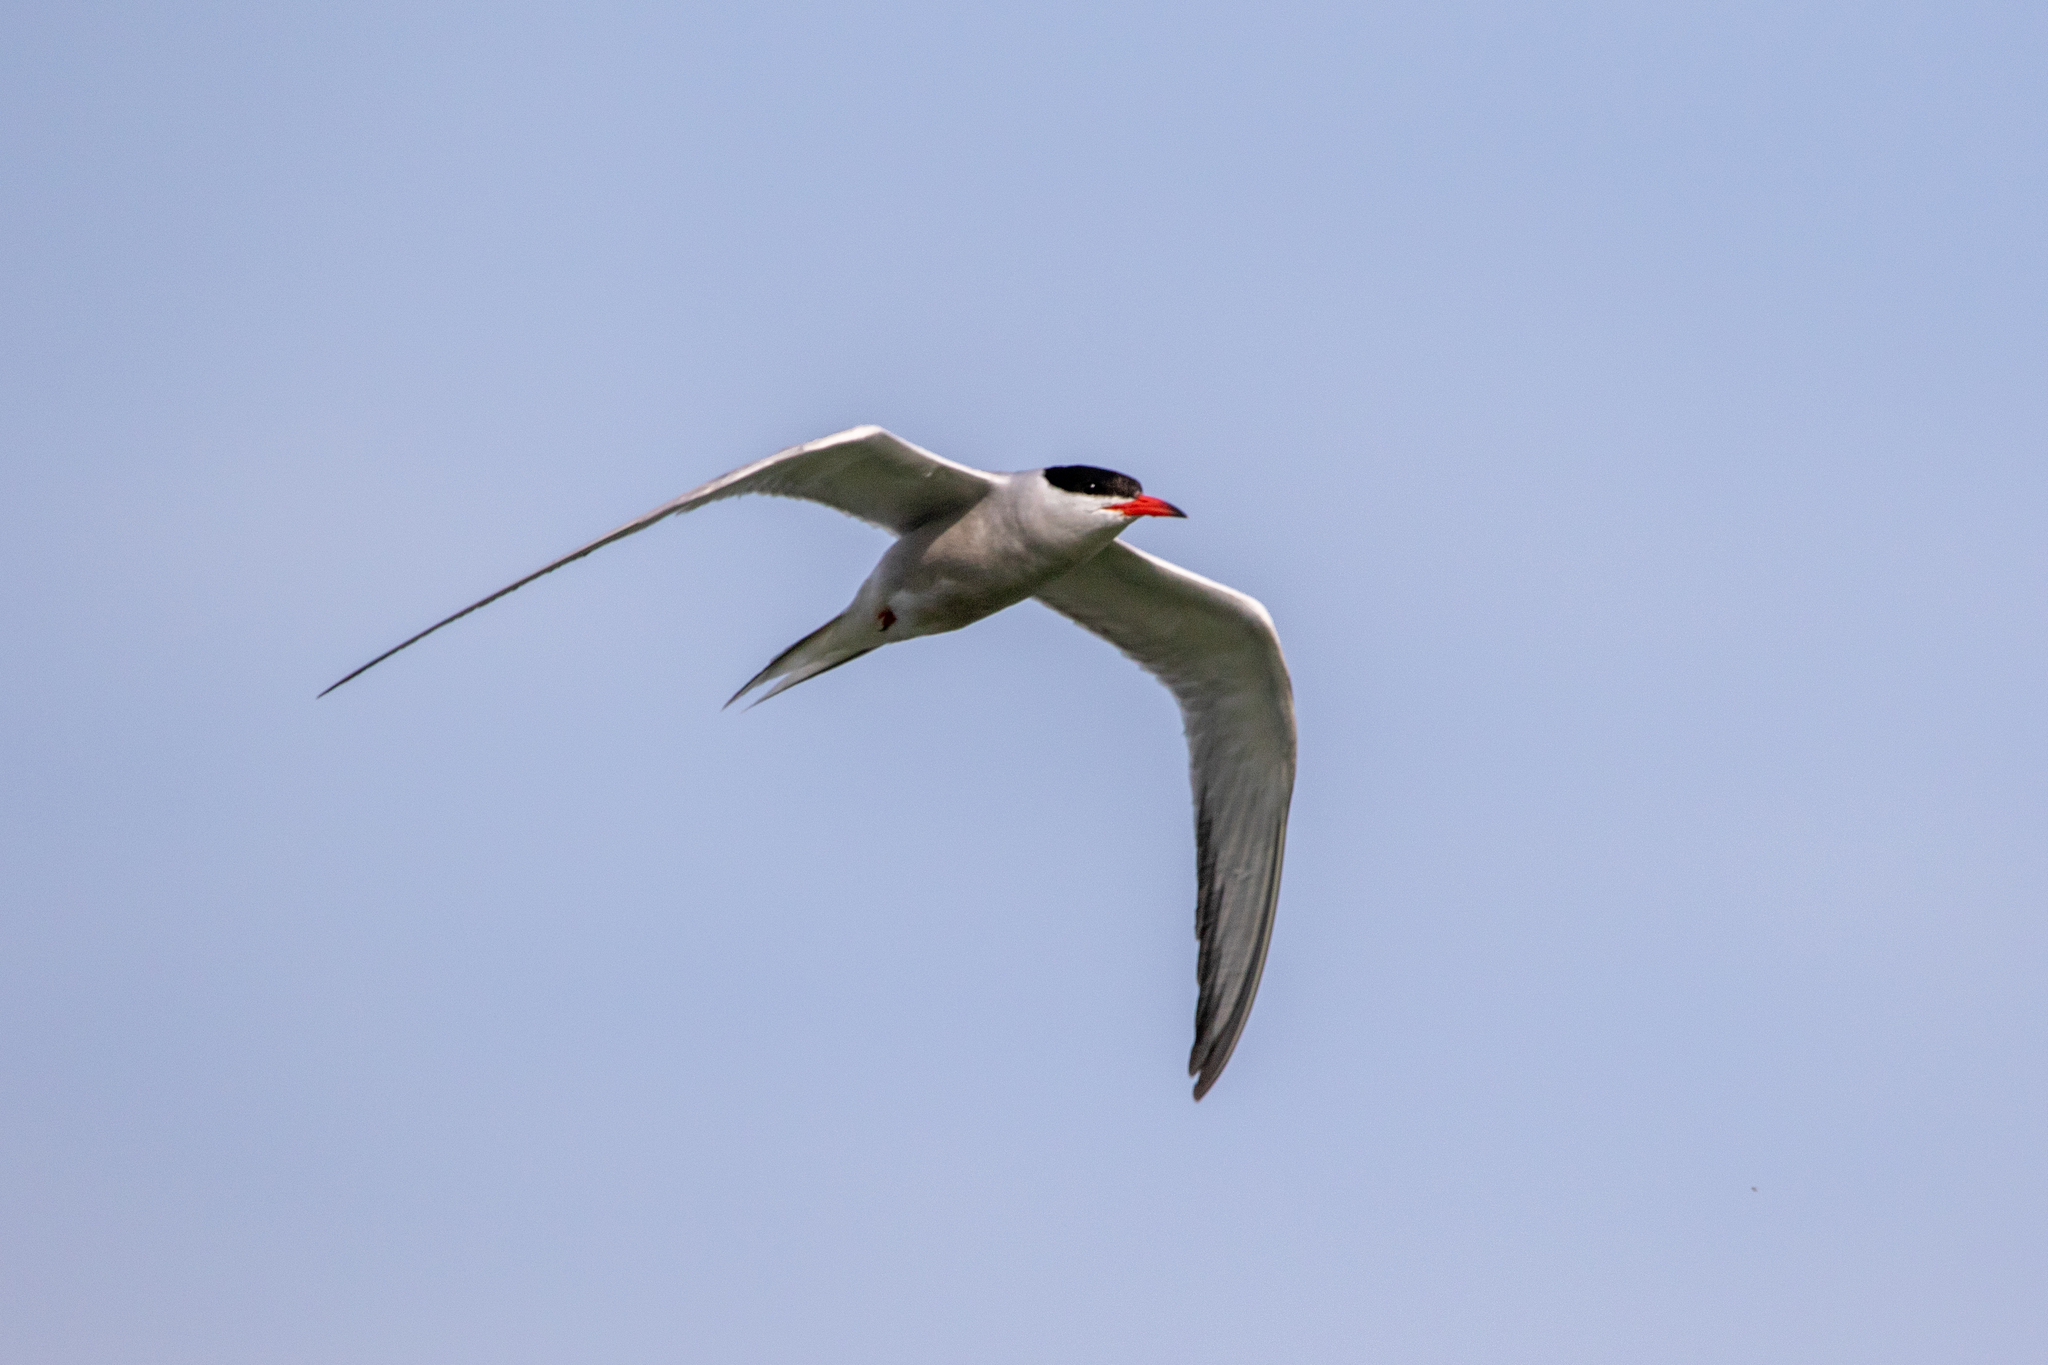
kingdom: Animalia
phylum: Chordata
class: Aves
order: Charadriiformes
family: Laridae
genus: Sterna
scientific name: Sterna hirundo
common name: Common tern
